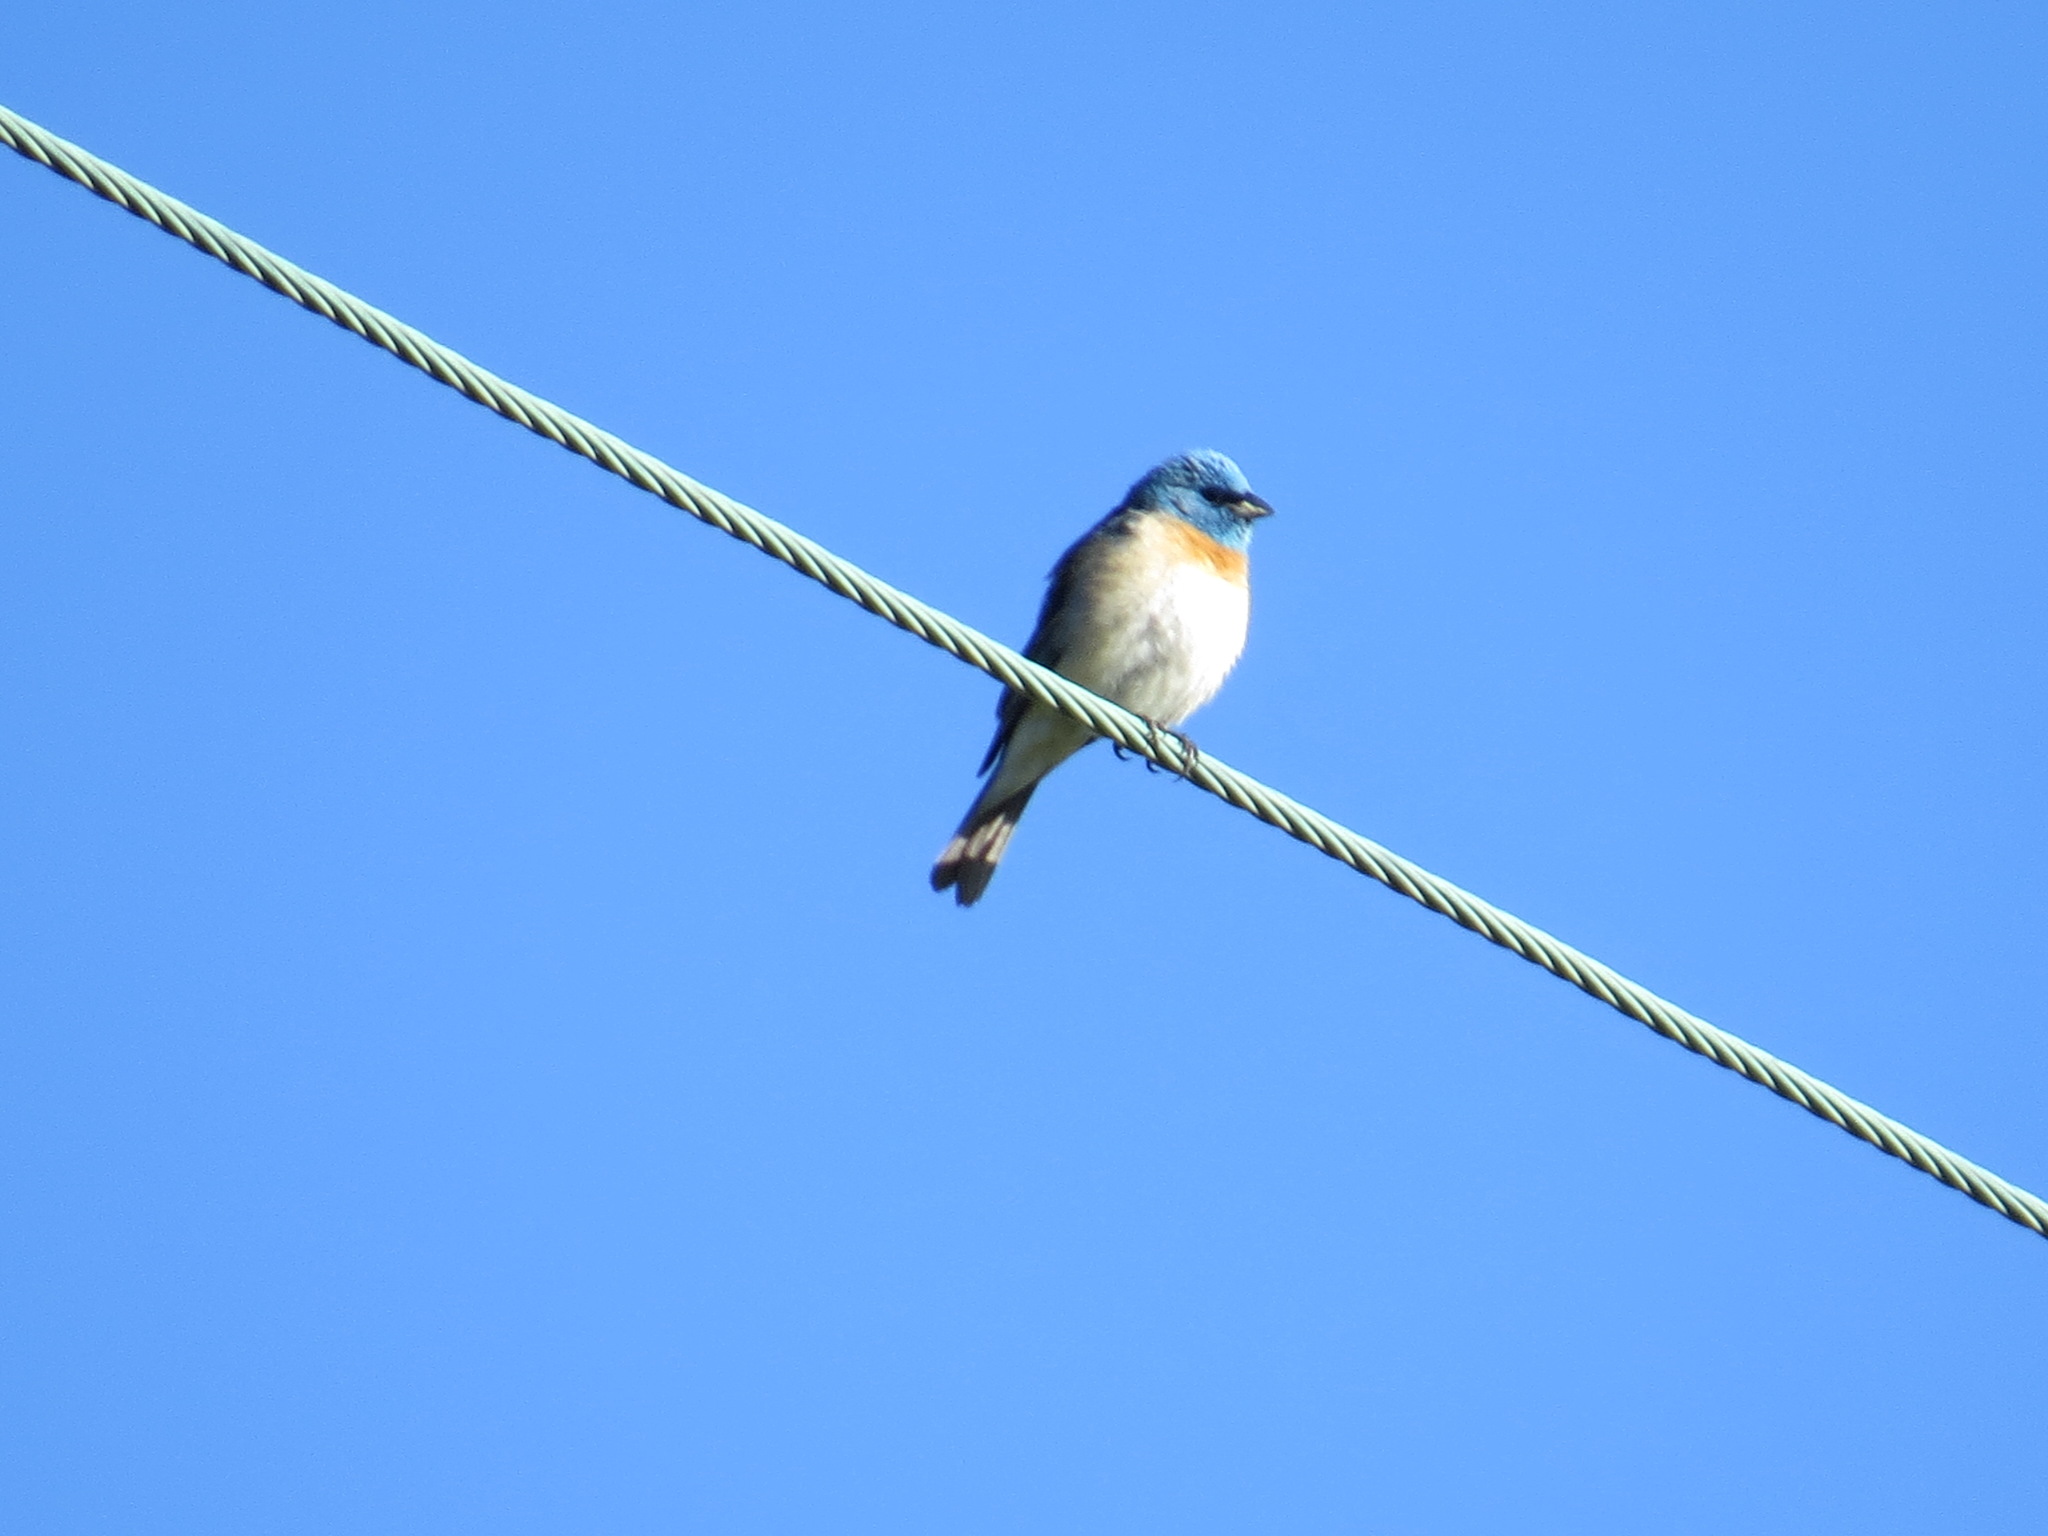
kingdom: Animalia
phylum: Chordata
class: Aves
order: Passeriformes
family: Cardinalidae
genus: Passerina
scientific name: Passerina amoena
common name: Lazuli bunting
